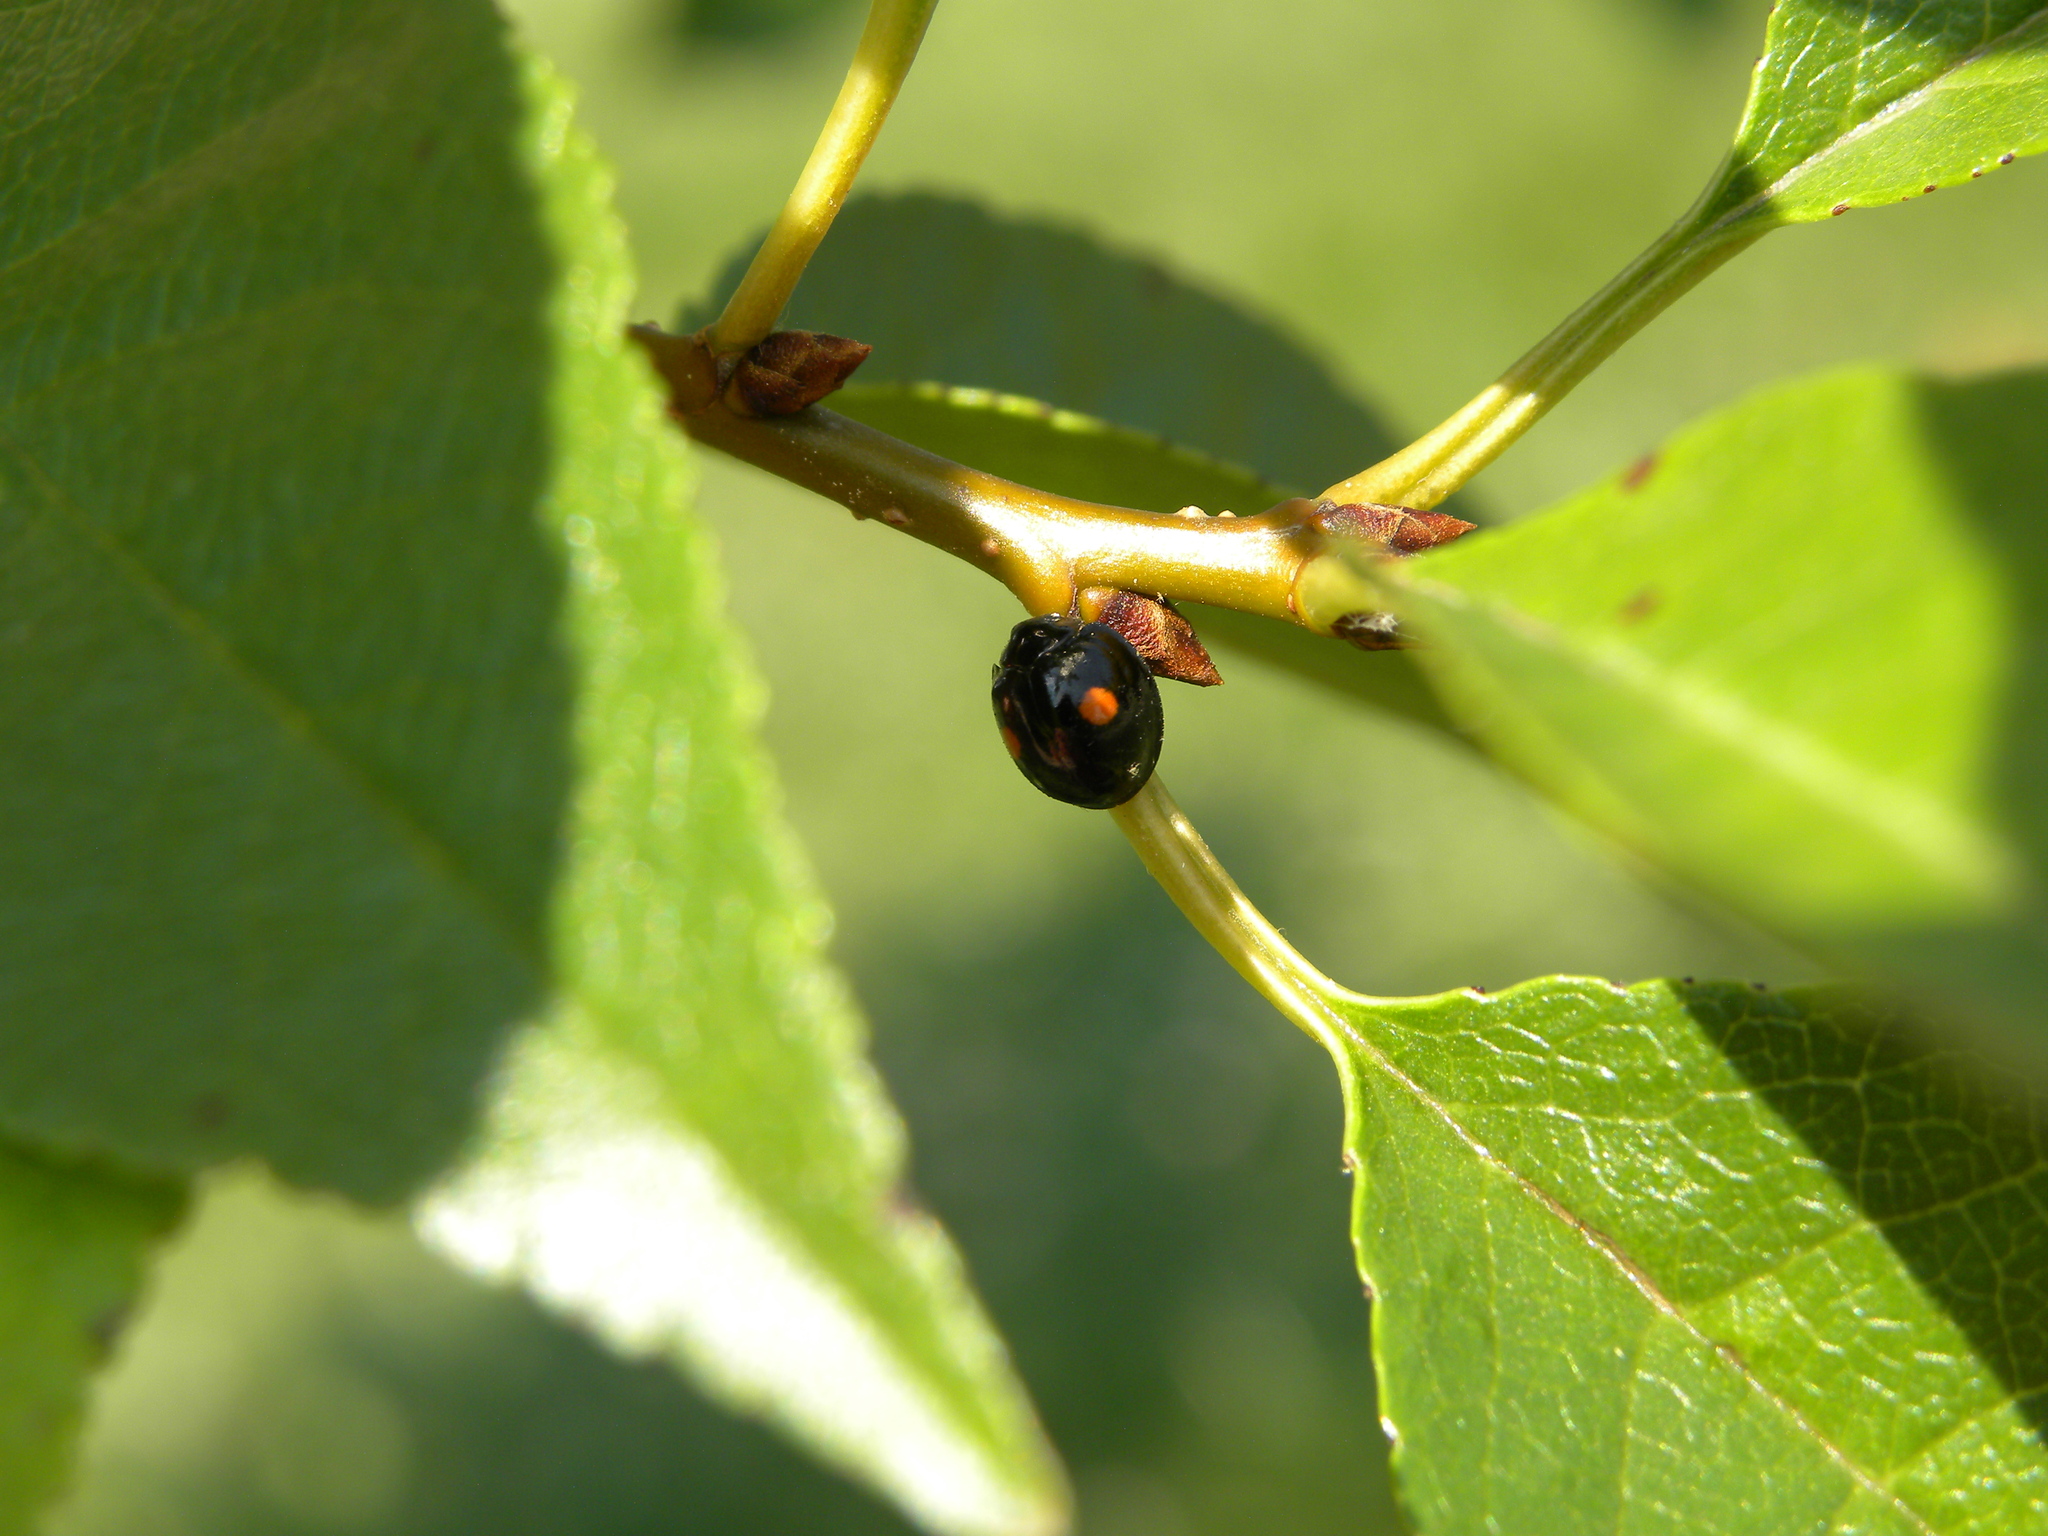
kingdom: Animalia
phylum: Arthropoda
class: Insecta
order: Coleoptera
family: Coccinellidae
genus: Chilocorus
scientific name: Chilocorus stigma
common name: Twicestabbed lady beetle
